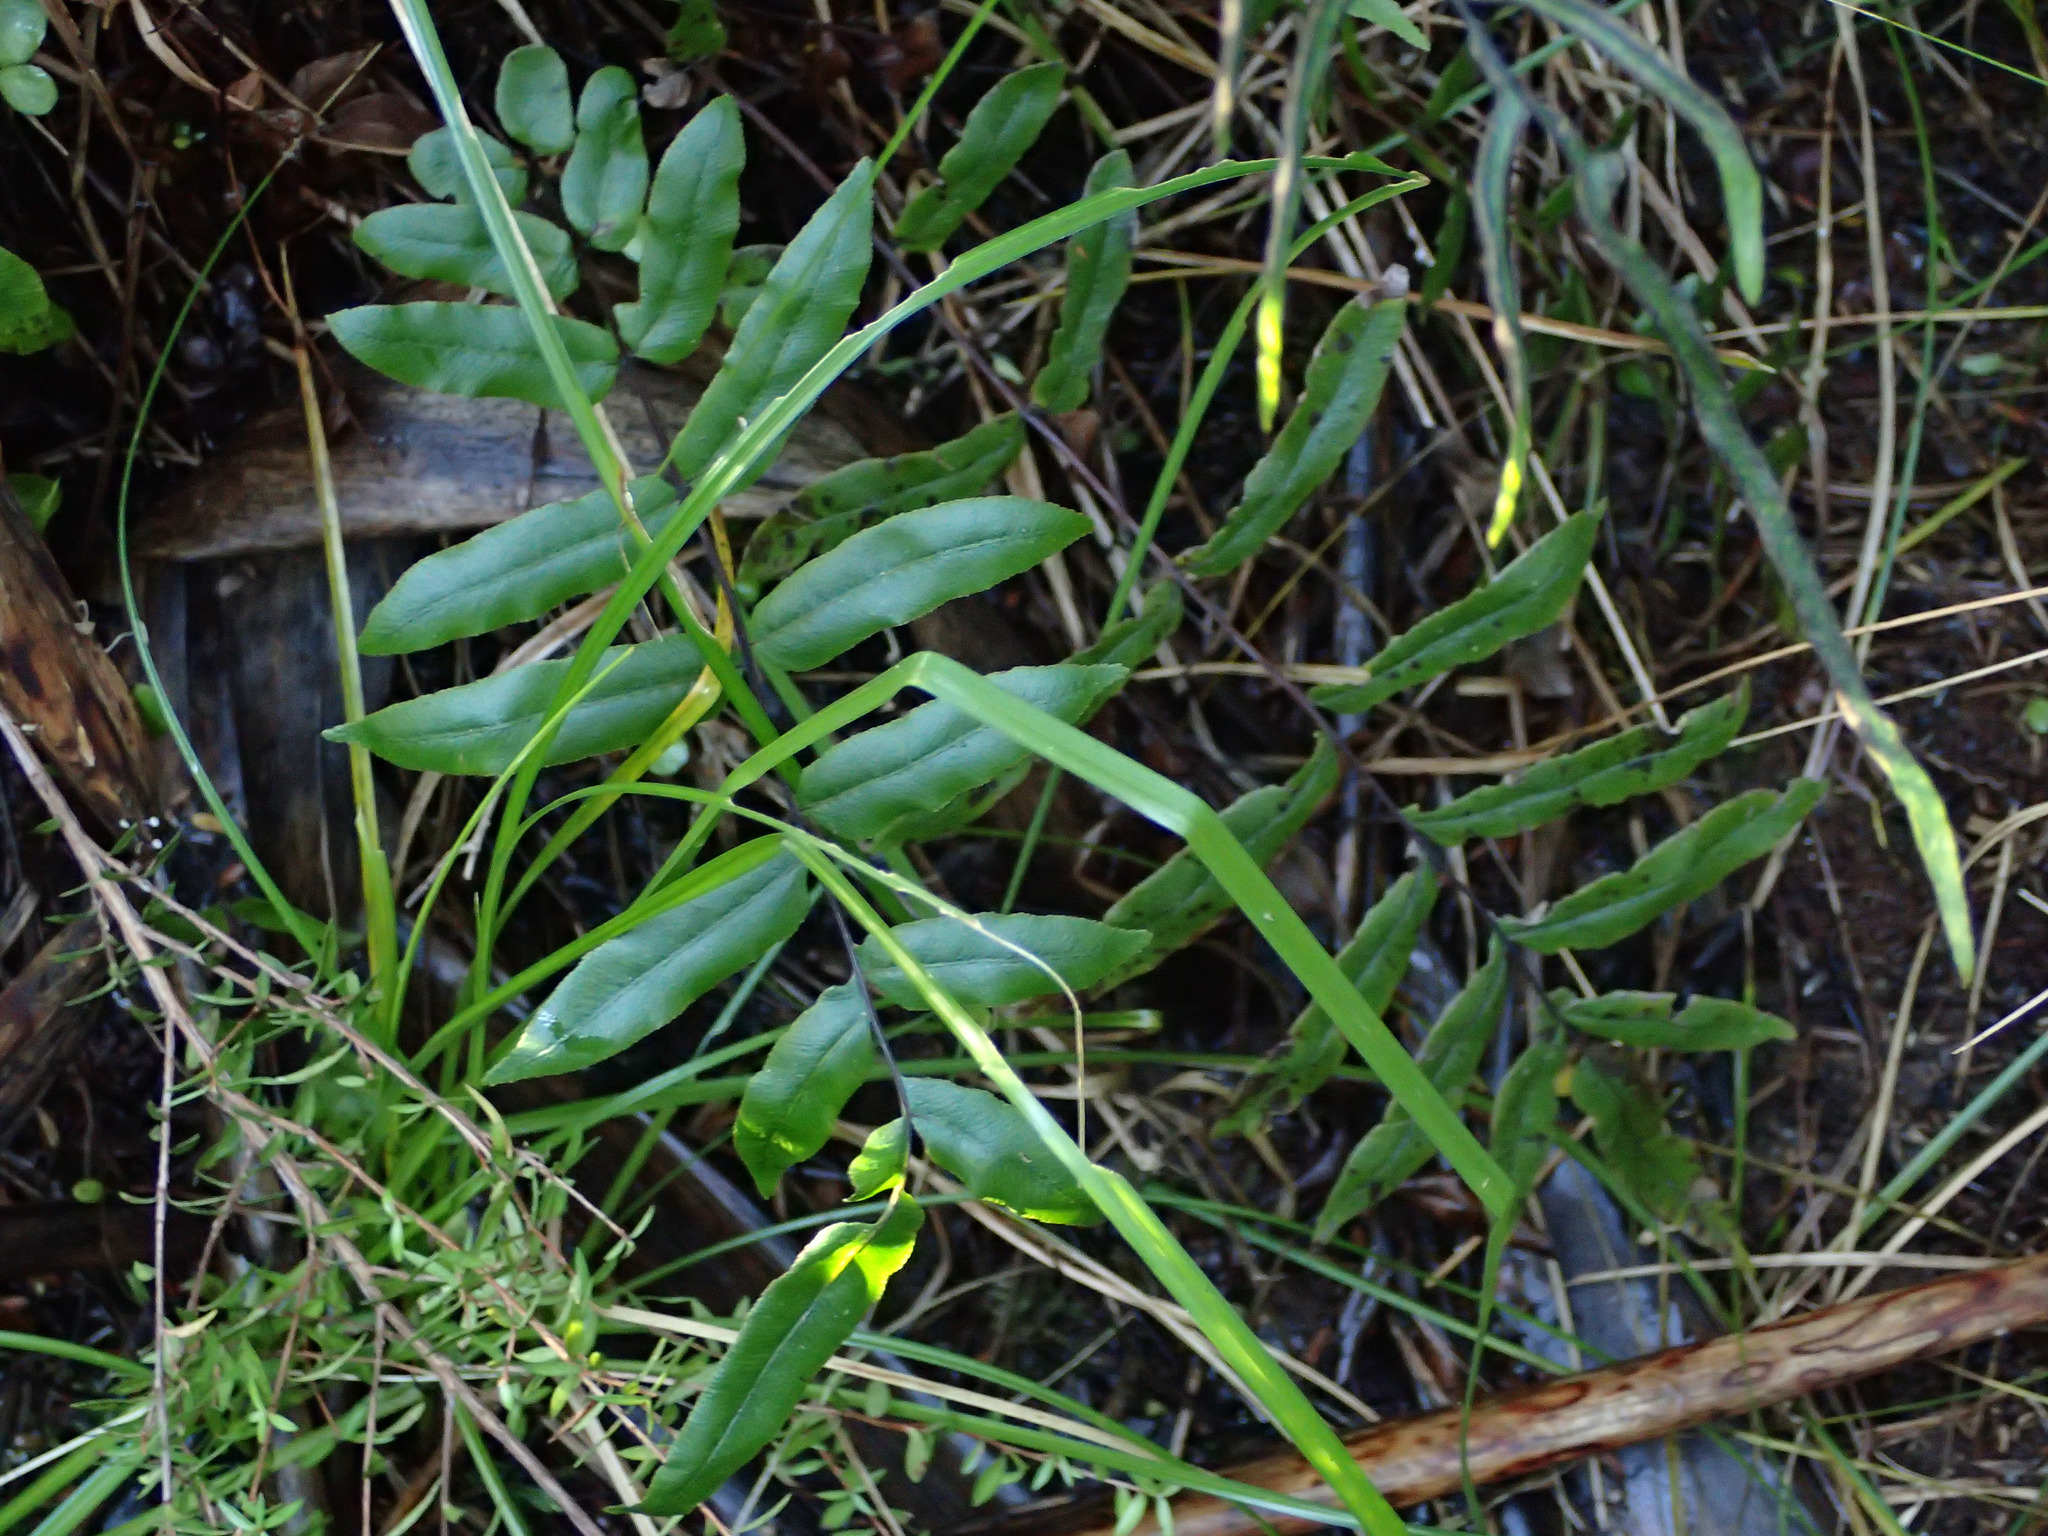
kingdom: Plantae
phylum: Tracheophyta
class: Polypodiopsida
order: Polypodiales
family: Blechnaceae
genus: Parablechnum
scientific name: Parablechnum minus
